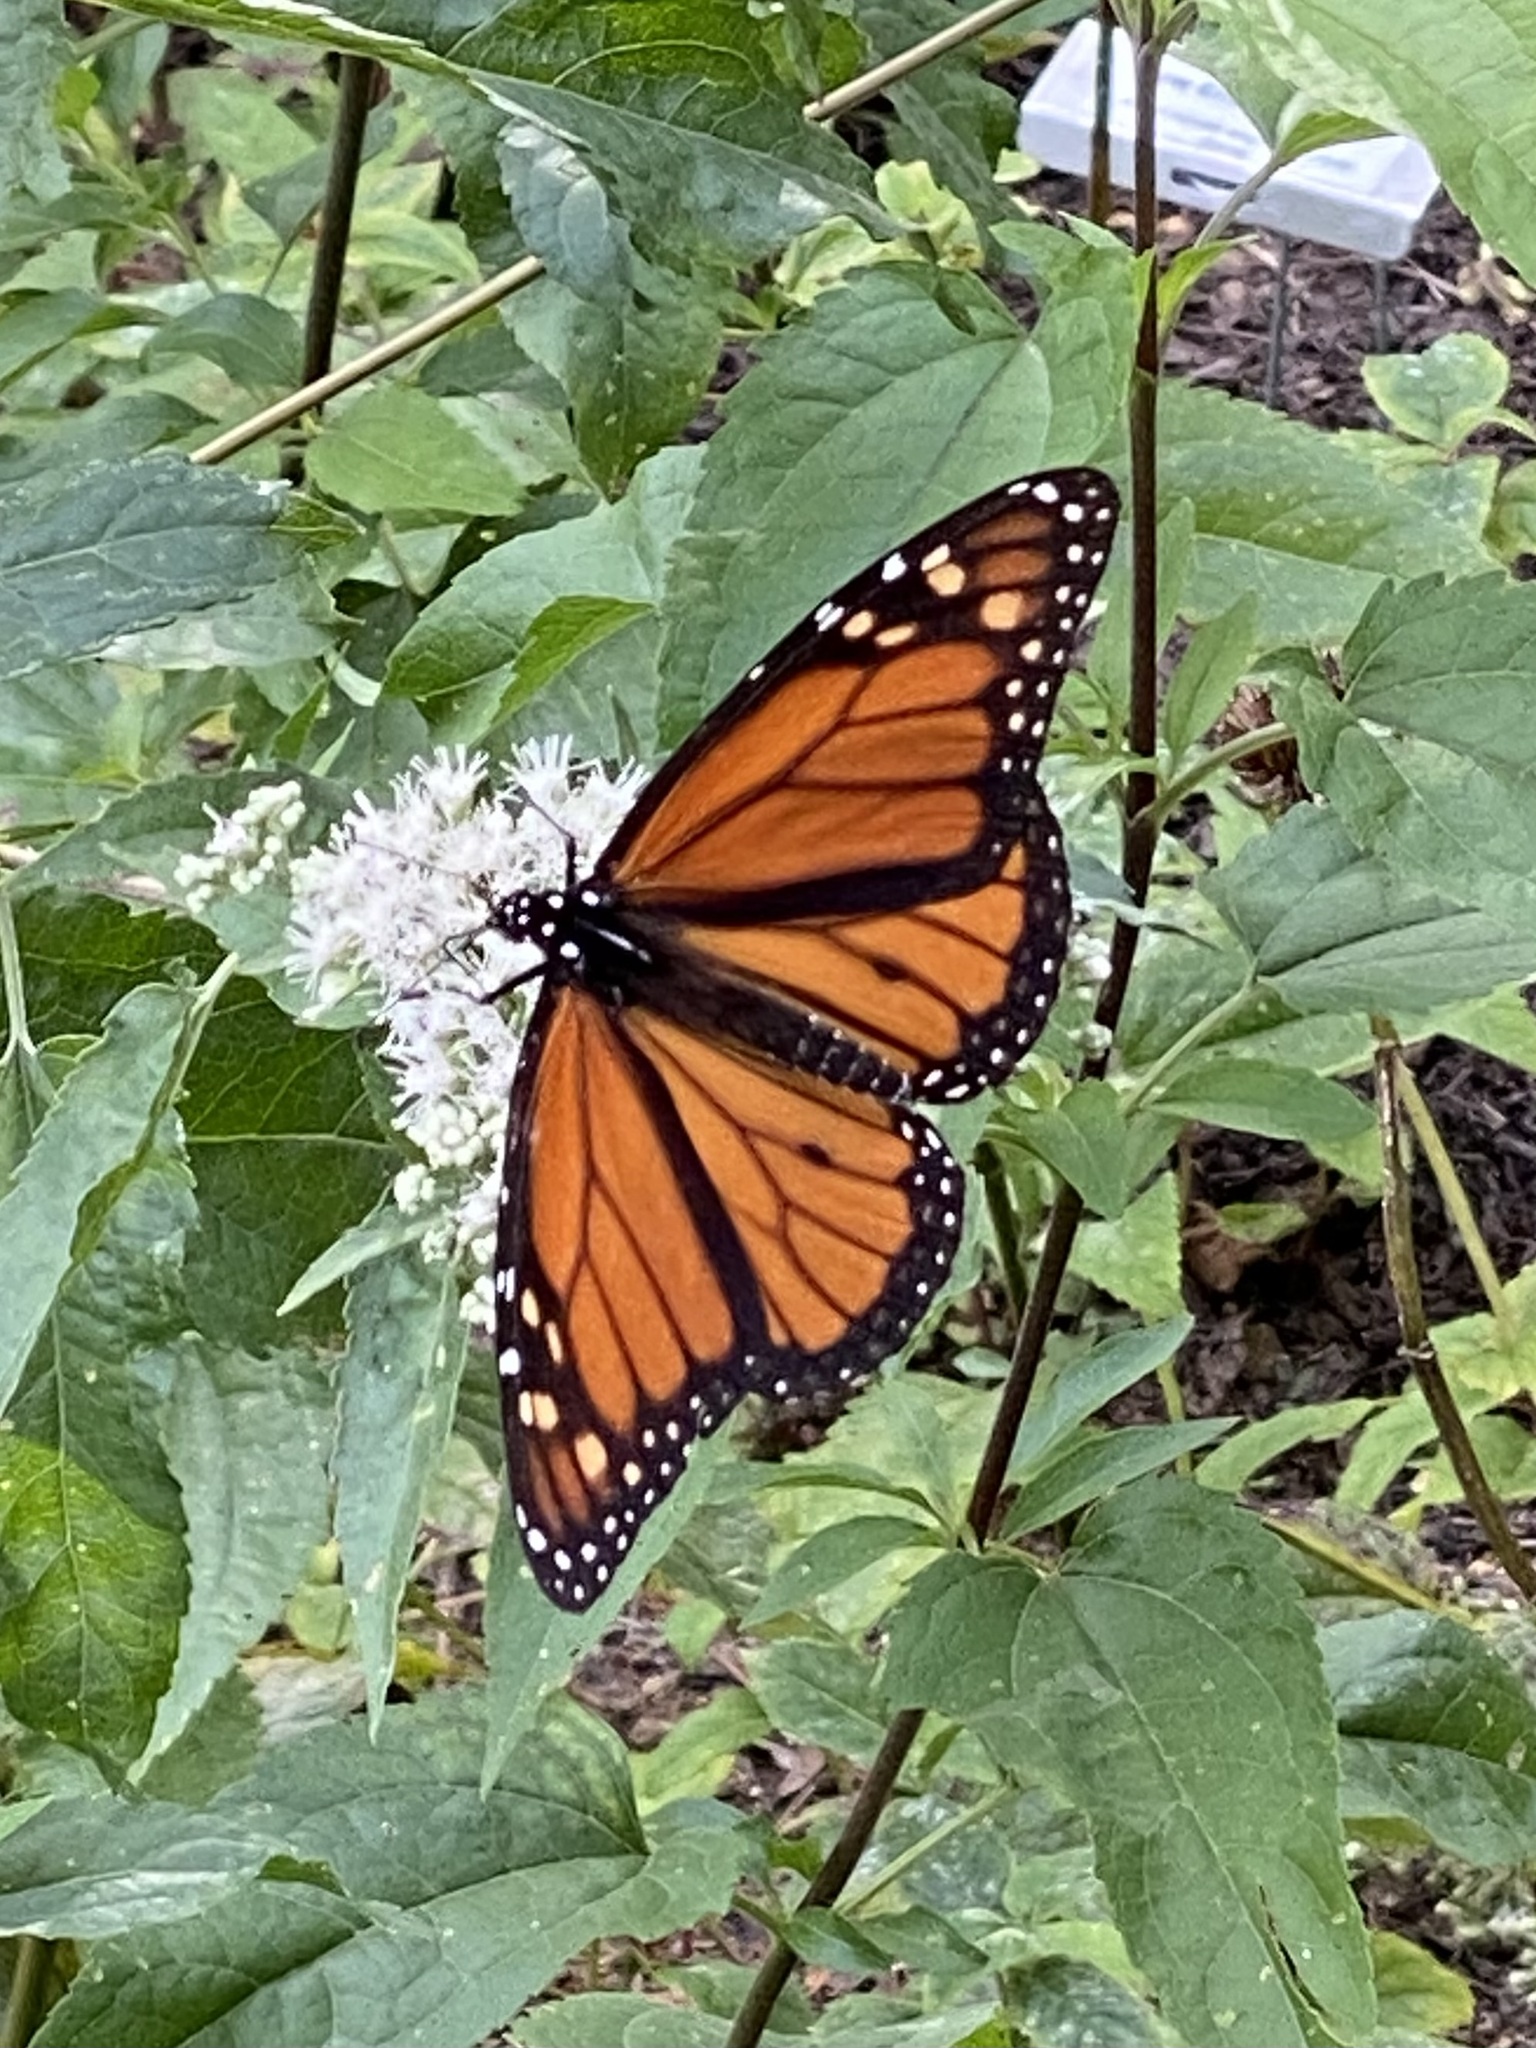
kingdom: Animalia
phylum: Arthropoda
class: Insecta
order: Lepidoptera
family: Nymphalidae
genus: Danaus
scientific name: Danaus plexippus
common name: Monarch
